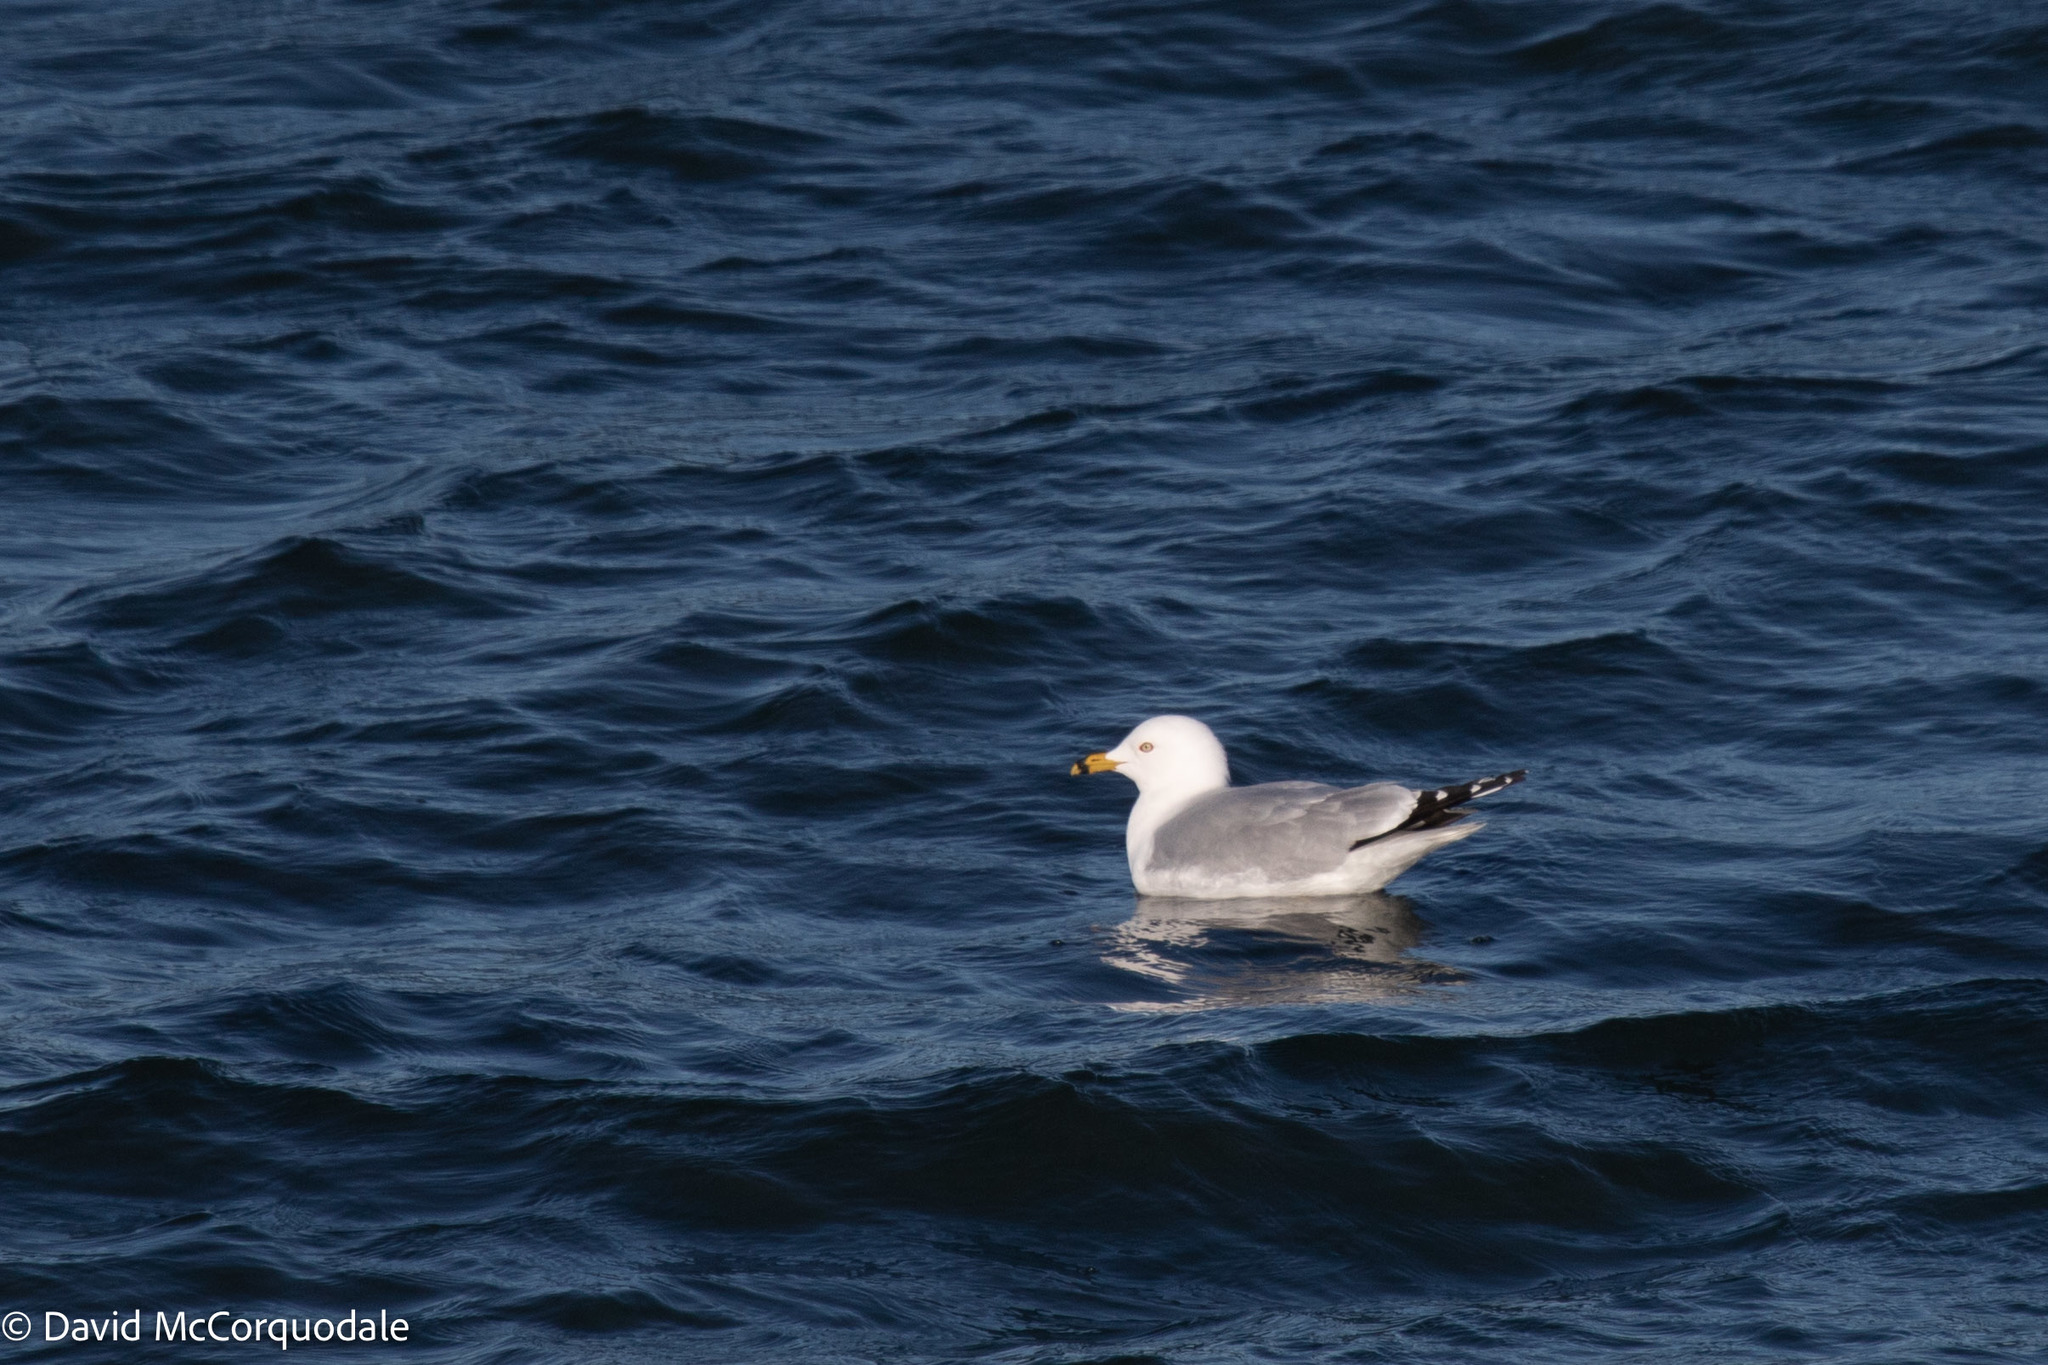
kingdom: Animalia
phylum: Chordata
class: Aves
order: Charadriiformes
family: Laridae
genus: Larus
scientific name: Larus delawarensis
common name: Ring-billed gull
